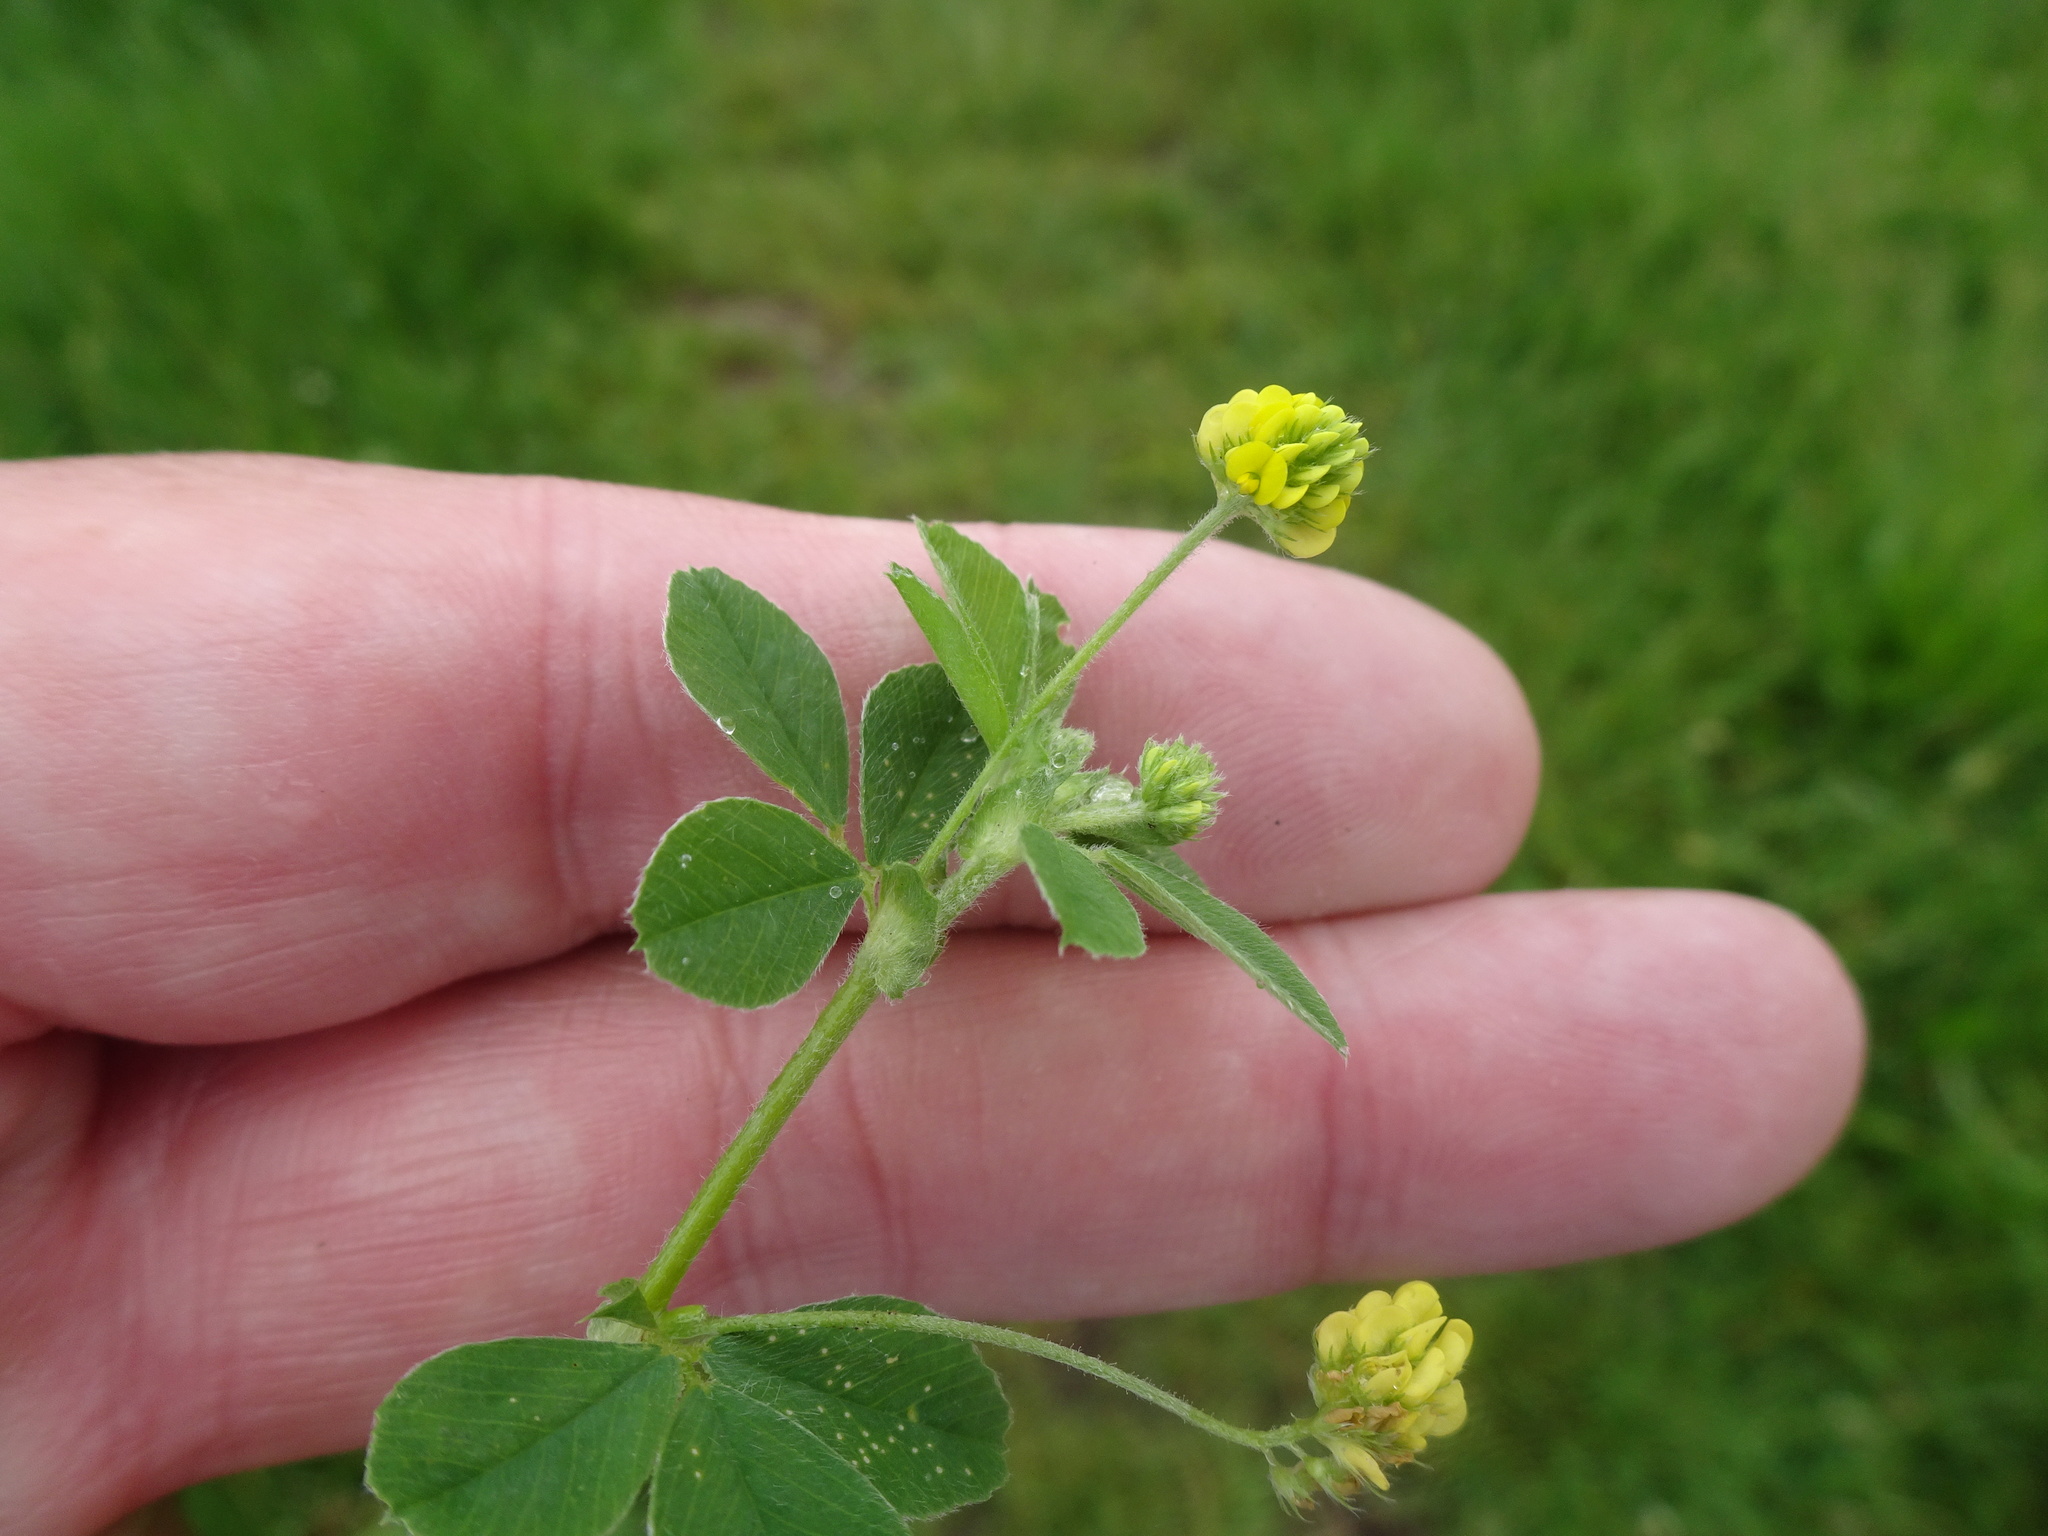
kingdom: Plantae
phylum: Tracheophyta
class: Magnoliopsida
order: Fabales
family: Fabaceae
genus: Medicago
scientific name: Medicago lupulina
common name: Black medick
